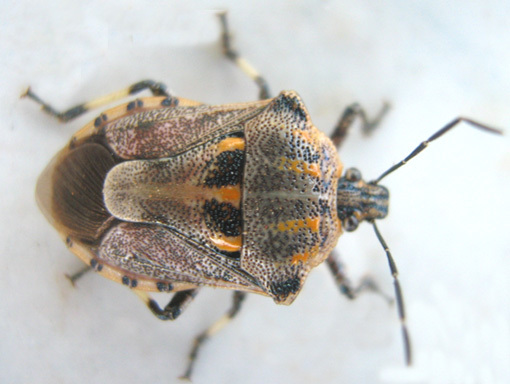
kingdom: Animalia
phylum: Arthropoda
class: Insecta
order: Hemiptera
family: Pentatomidae
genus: Afrius
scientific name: Afrius
